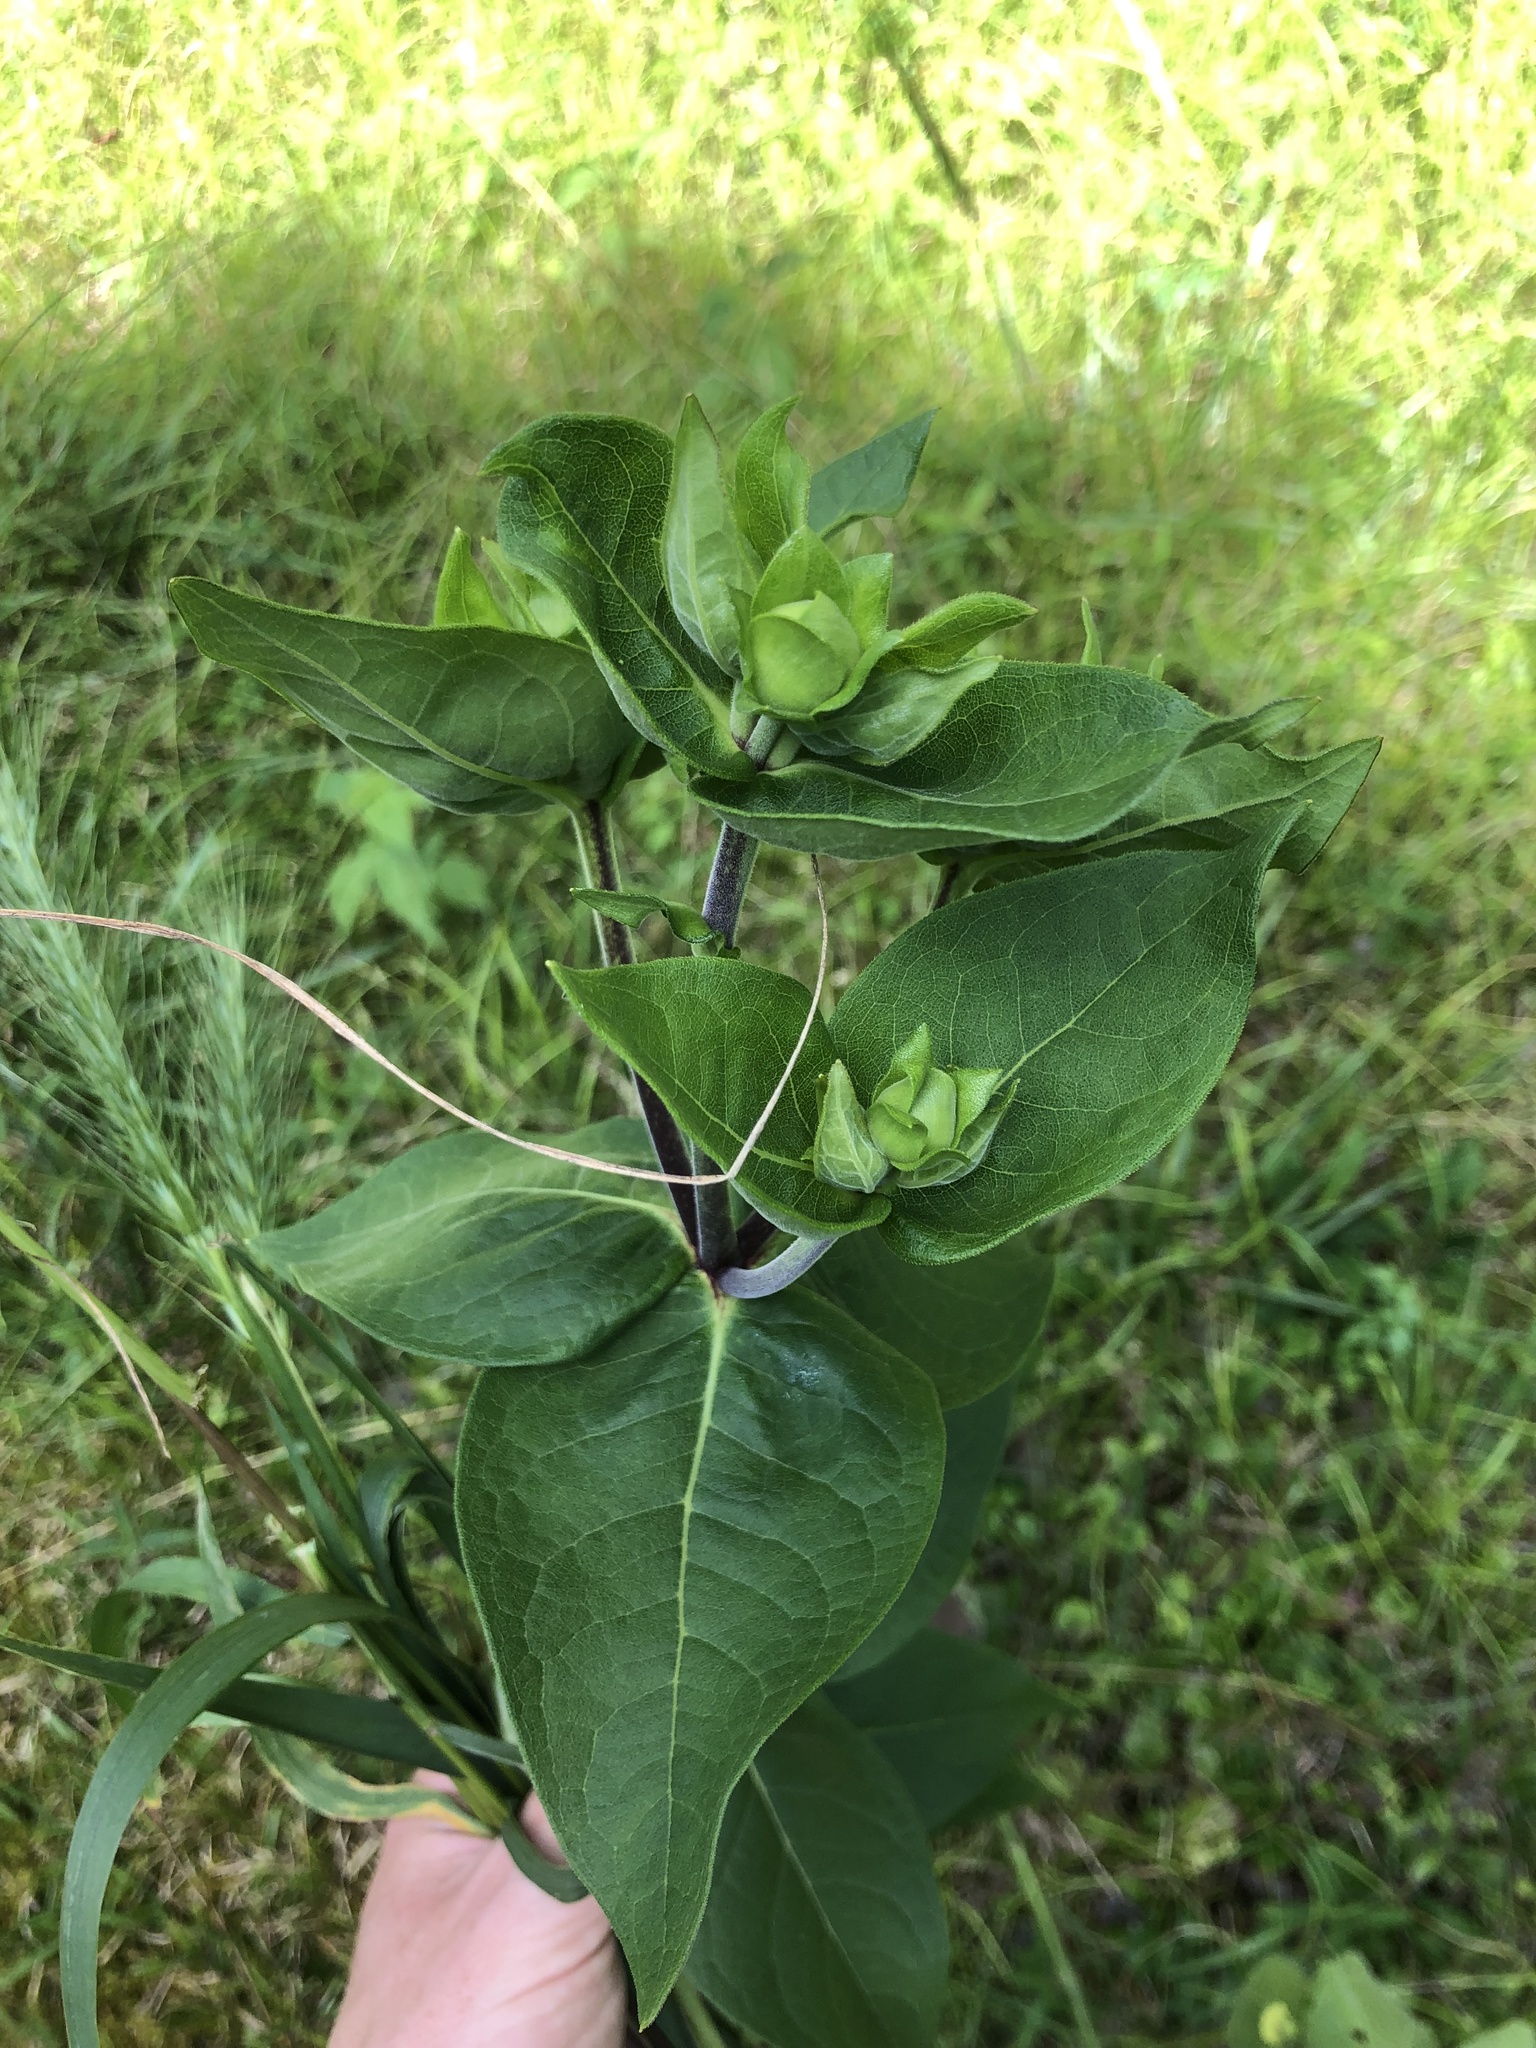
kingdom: Plantae
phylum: Tracheophyta
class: Magnoliopsida
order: Asterales
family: Asteraceae
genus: Silphium
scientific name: Silphium integrifolium
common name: Whole-leaf rosinweed
